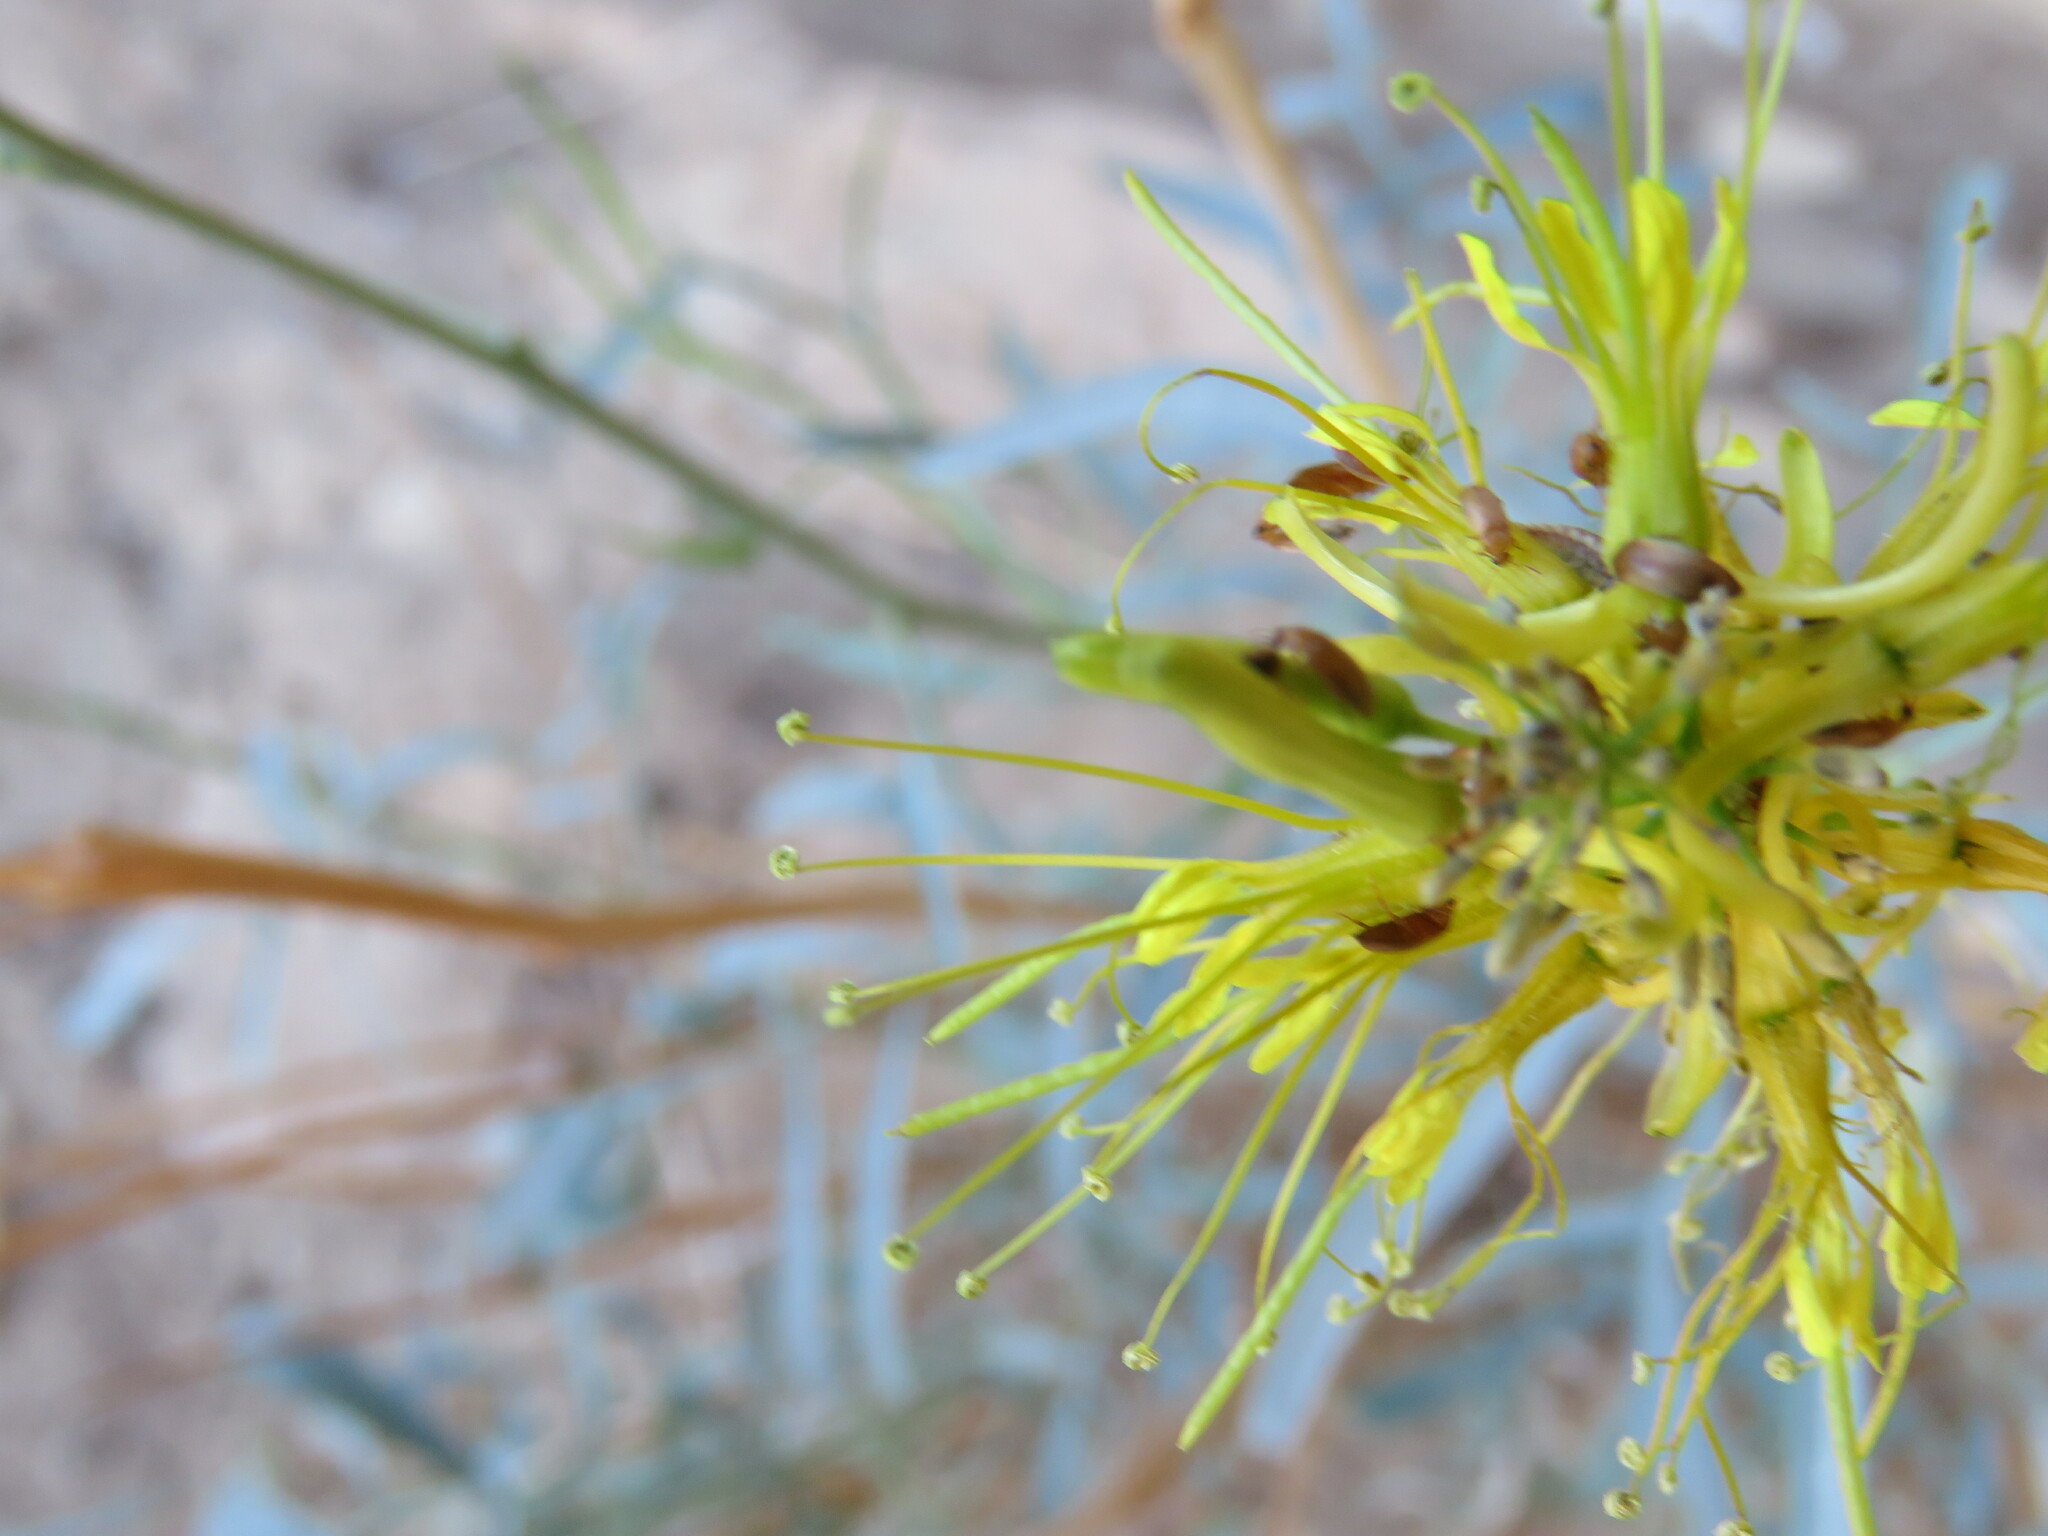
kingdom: Plantae
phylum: Tracheophyta
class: Magnoliopsida
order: Brassicales
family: Brassicaceae
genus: Stanleya
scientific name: Stanleya pinnata
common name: Prince's-plume
